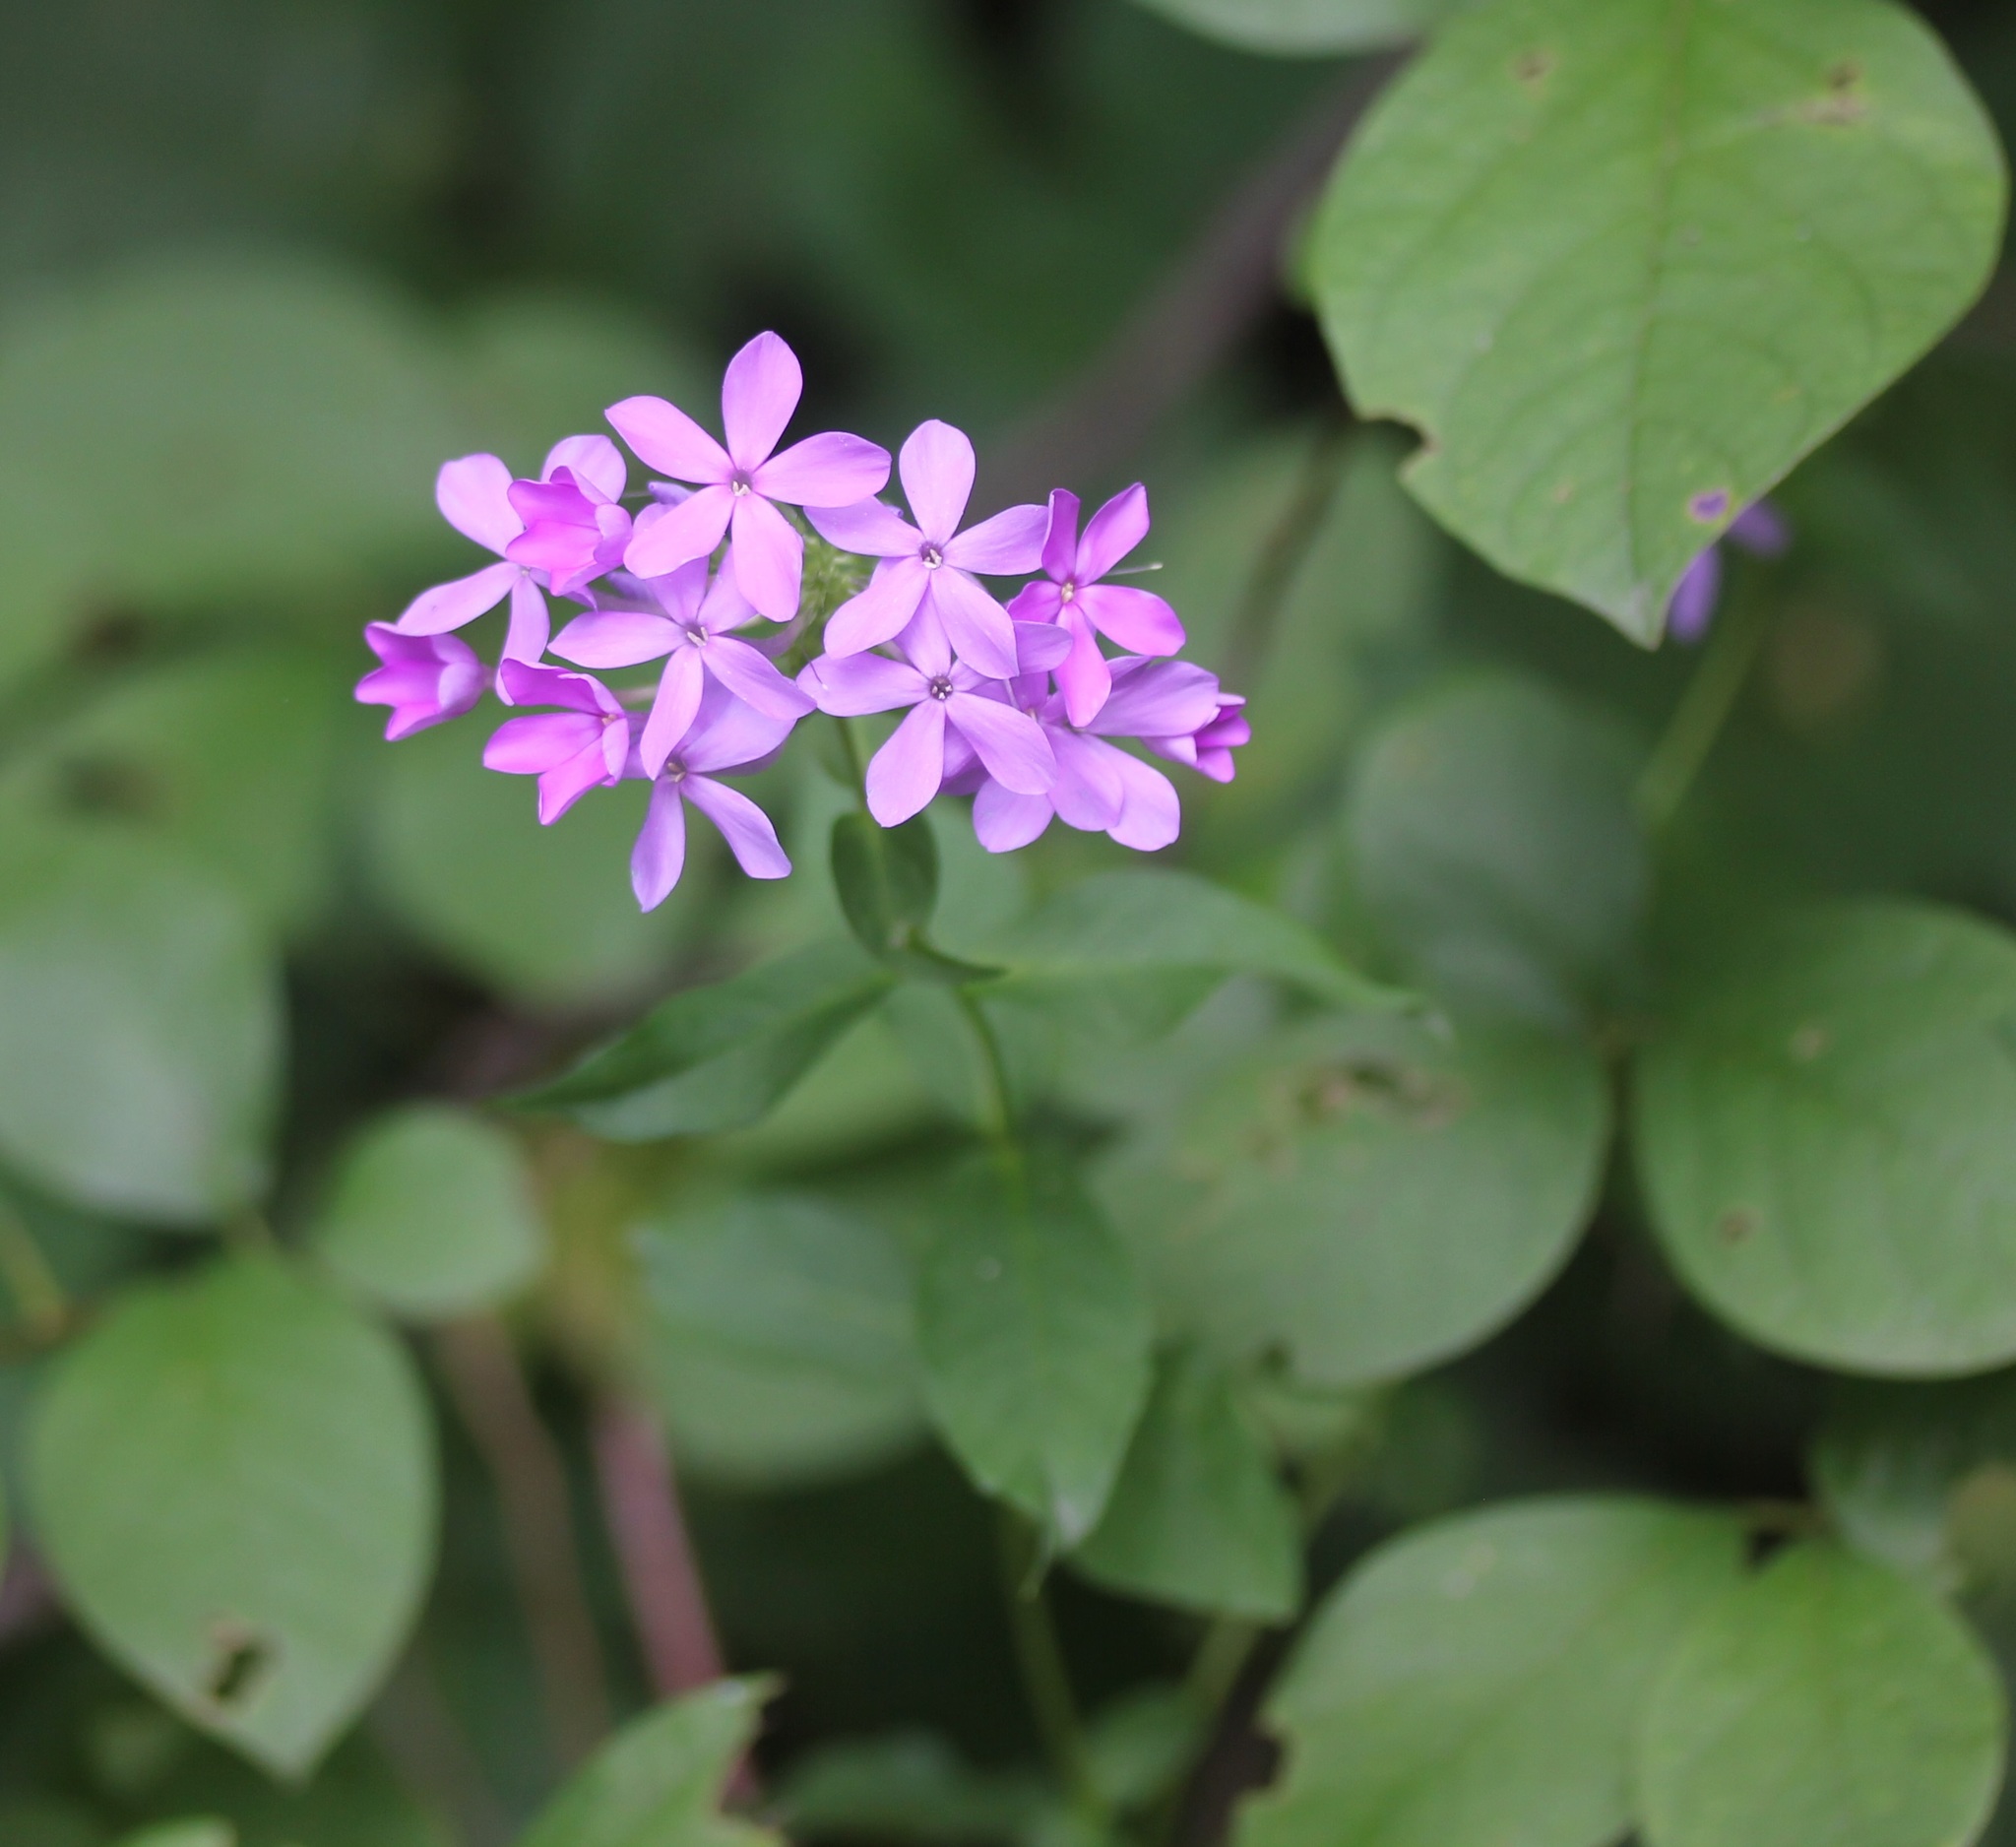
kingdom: Plantae
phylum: Tracheophyta
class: Magnoliopsida
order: Ericales
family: Polemoniaceae
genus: Phlox
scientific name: Phlox paniculata
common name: Fall phlox
